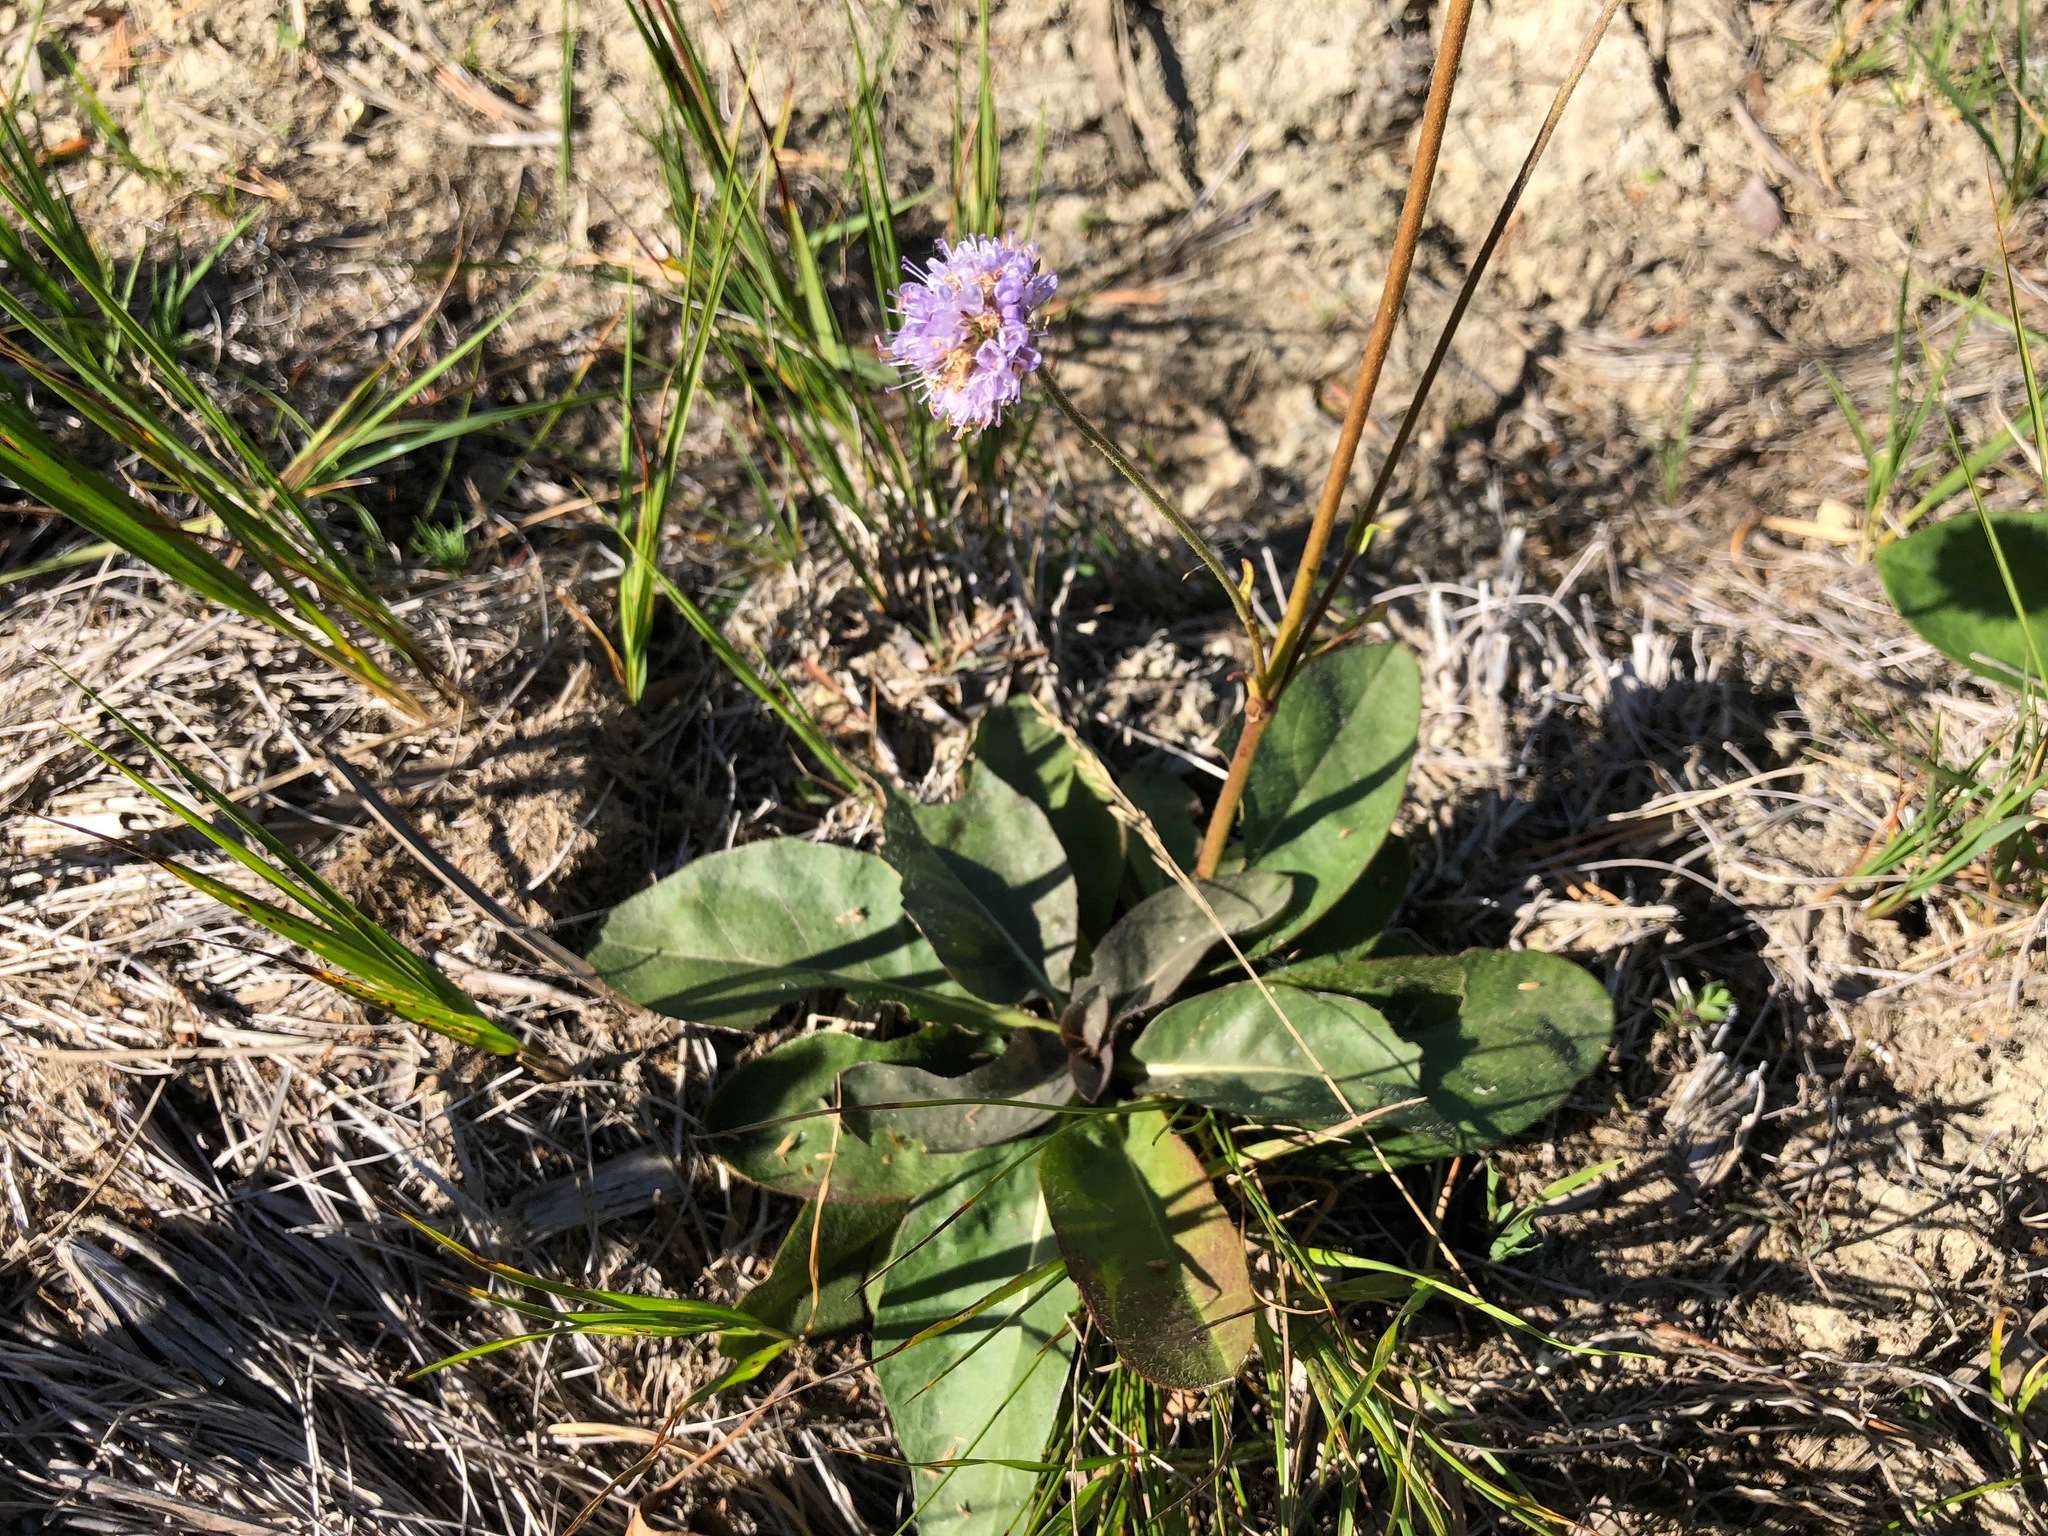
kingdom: Plantae
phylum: Tracheophyta
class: Magnoliopsida
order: Dipsacales
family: Caprifoliaceae
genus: Succisa
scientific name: Succisa pratensis
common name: Devil's-bit
